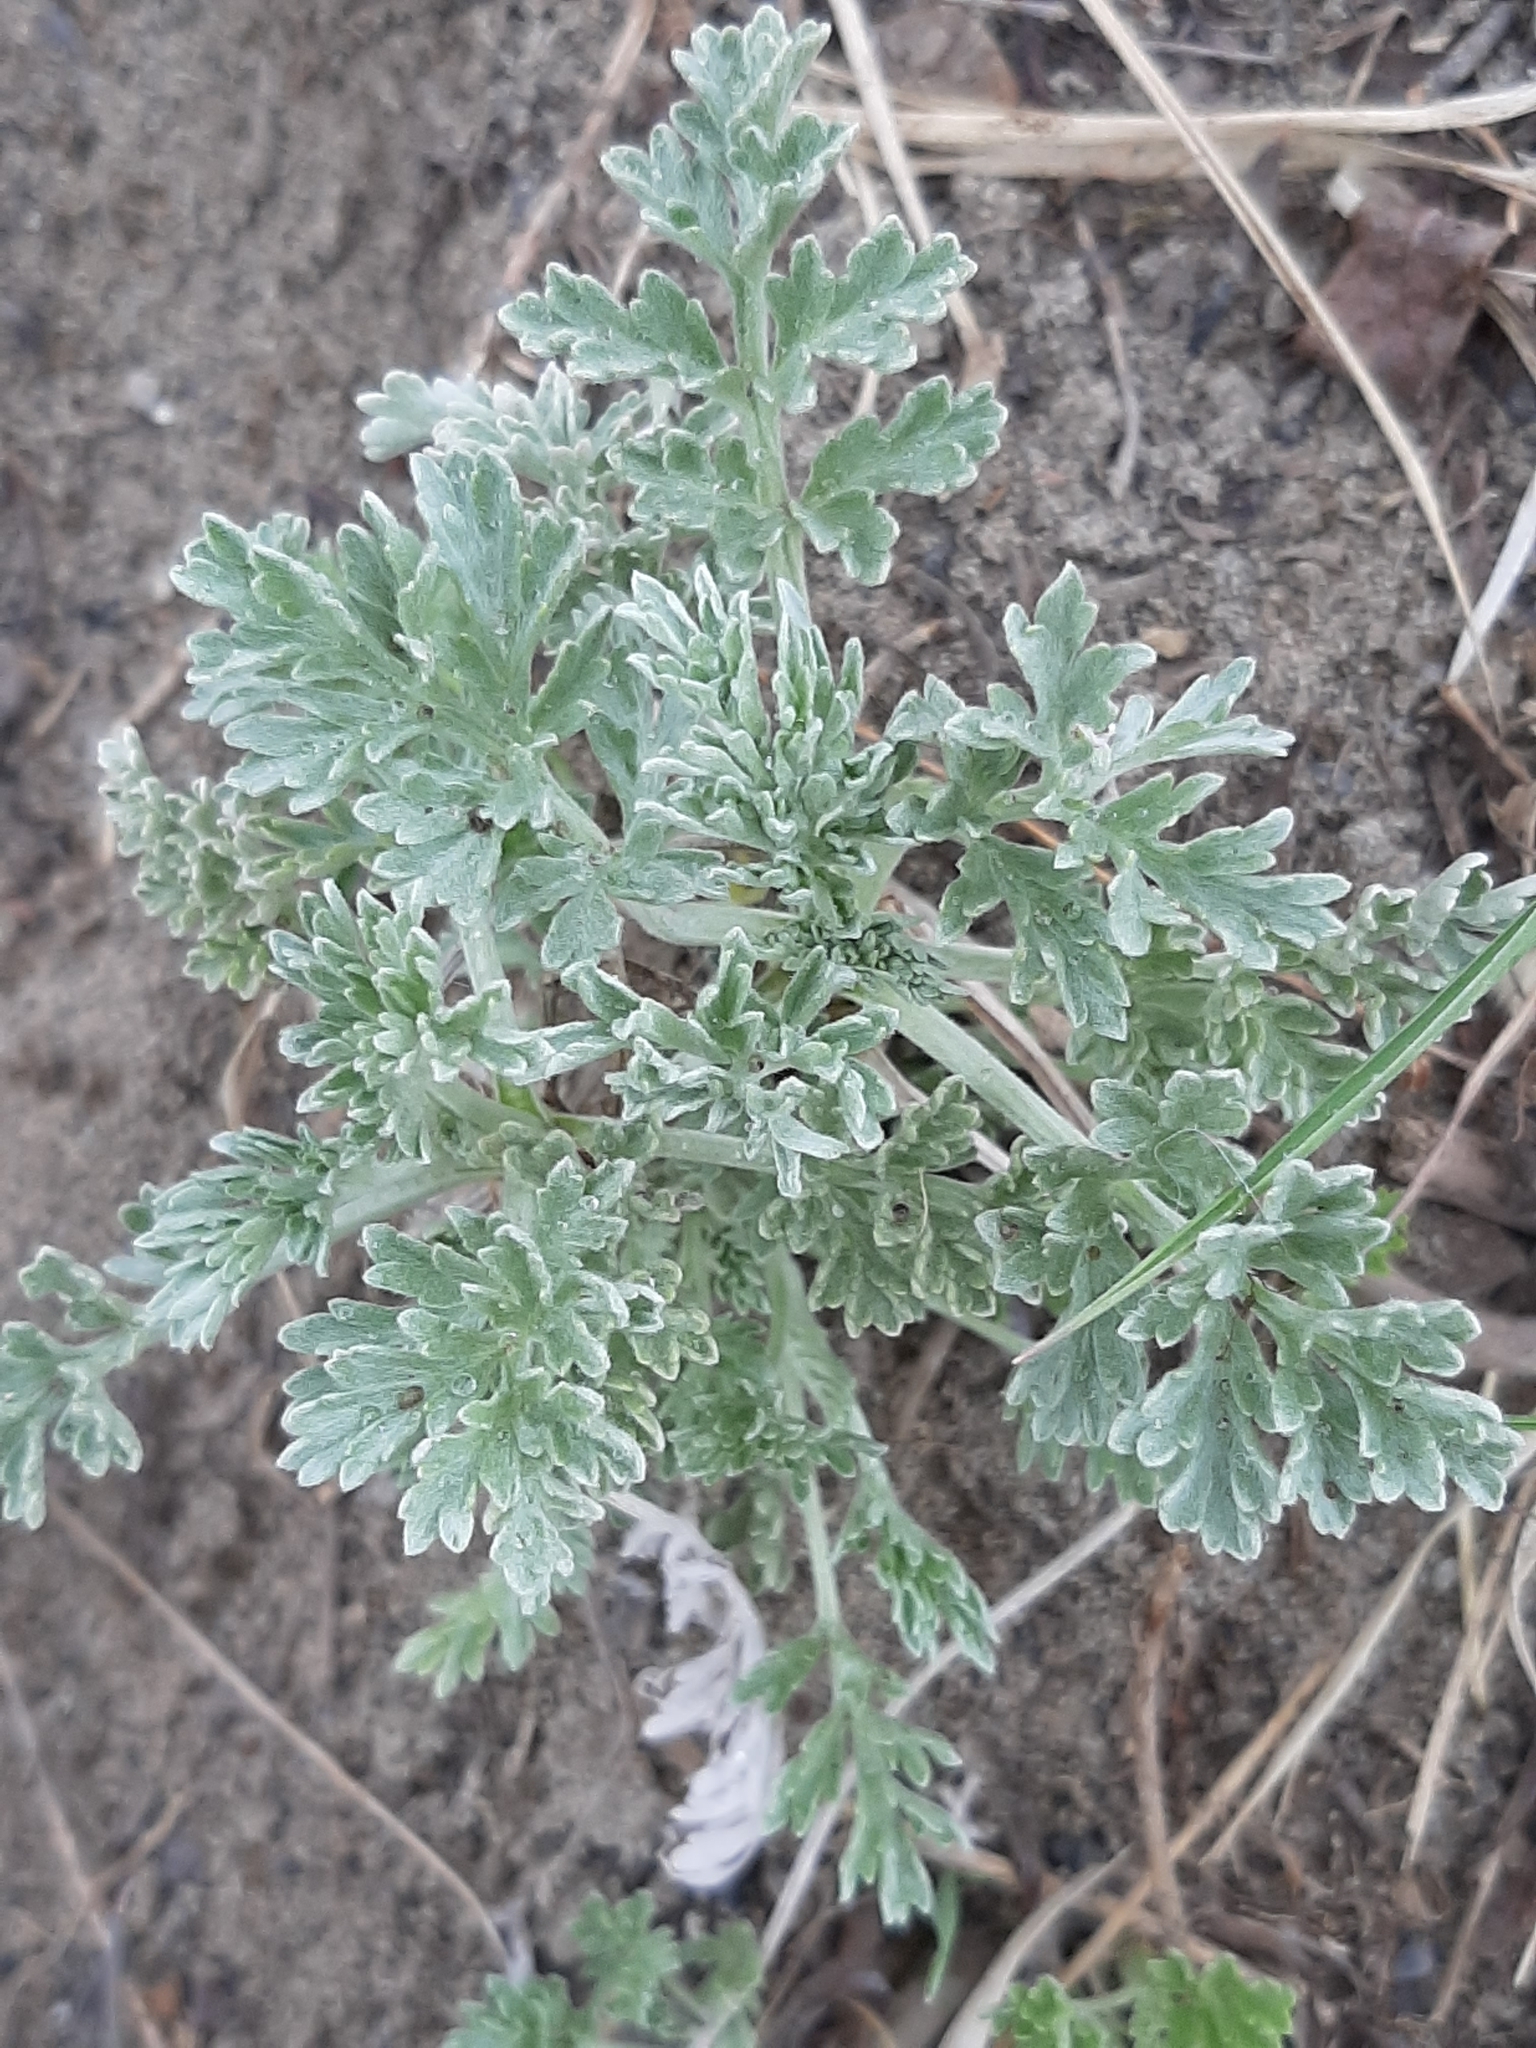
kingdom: Plantae
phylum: Tracheophyta
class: Magnoliopsida
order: Asterales
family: Asteraceae
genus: Artemisia
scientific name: Artemisia absinthium
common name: Wormwood
